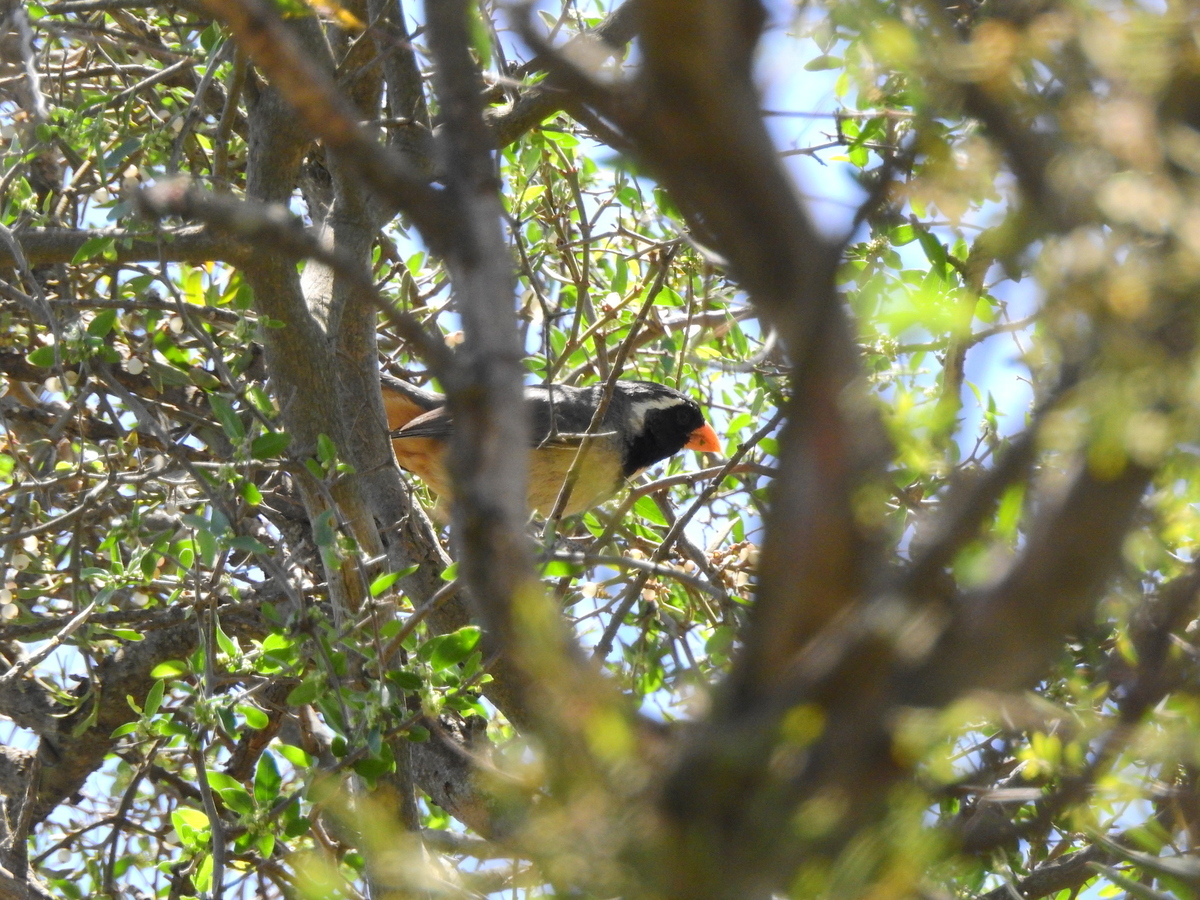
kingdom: Animalia
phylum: Chordata
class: Aves
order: Passeriformes
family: Thraupidae
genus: Saltator
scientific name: Saltator aurantiirostris
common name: Golden-billed saltator
